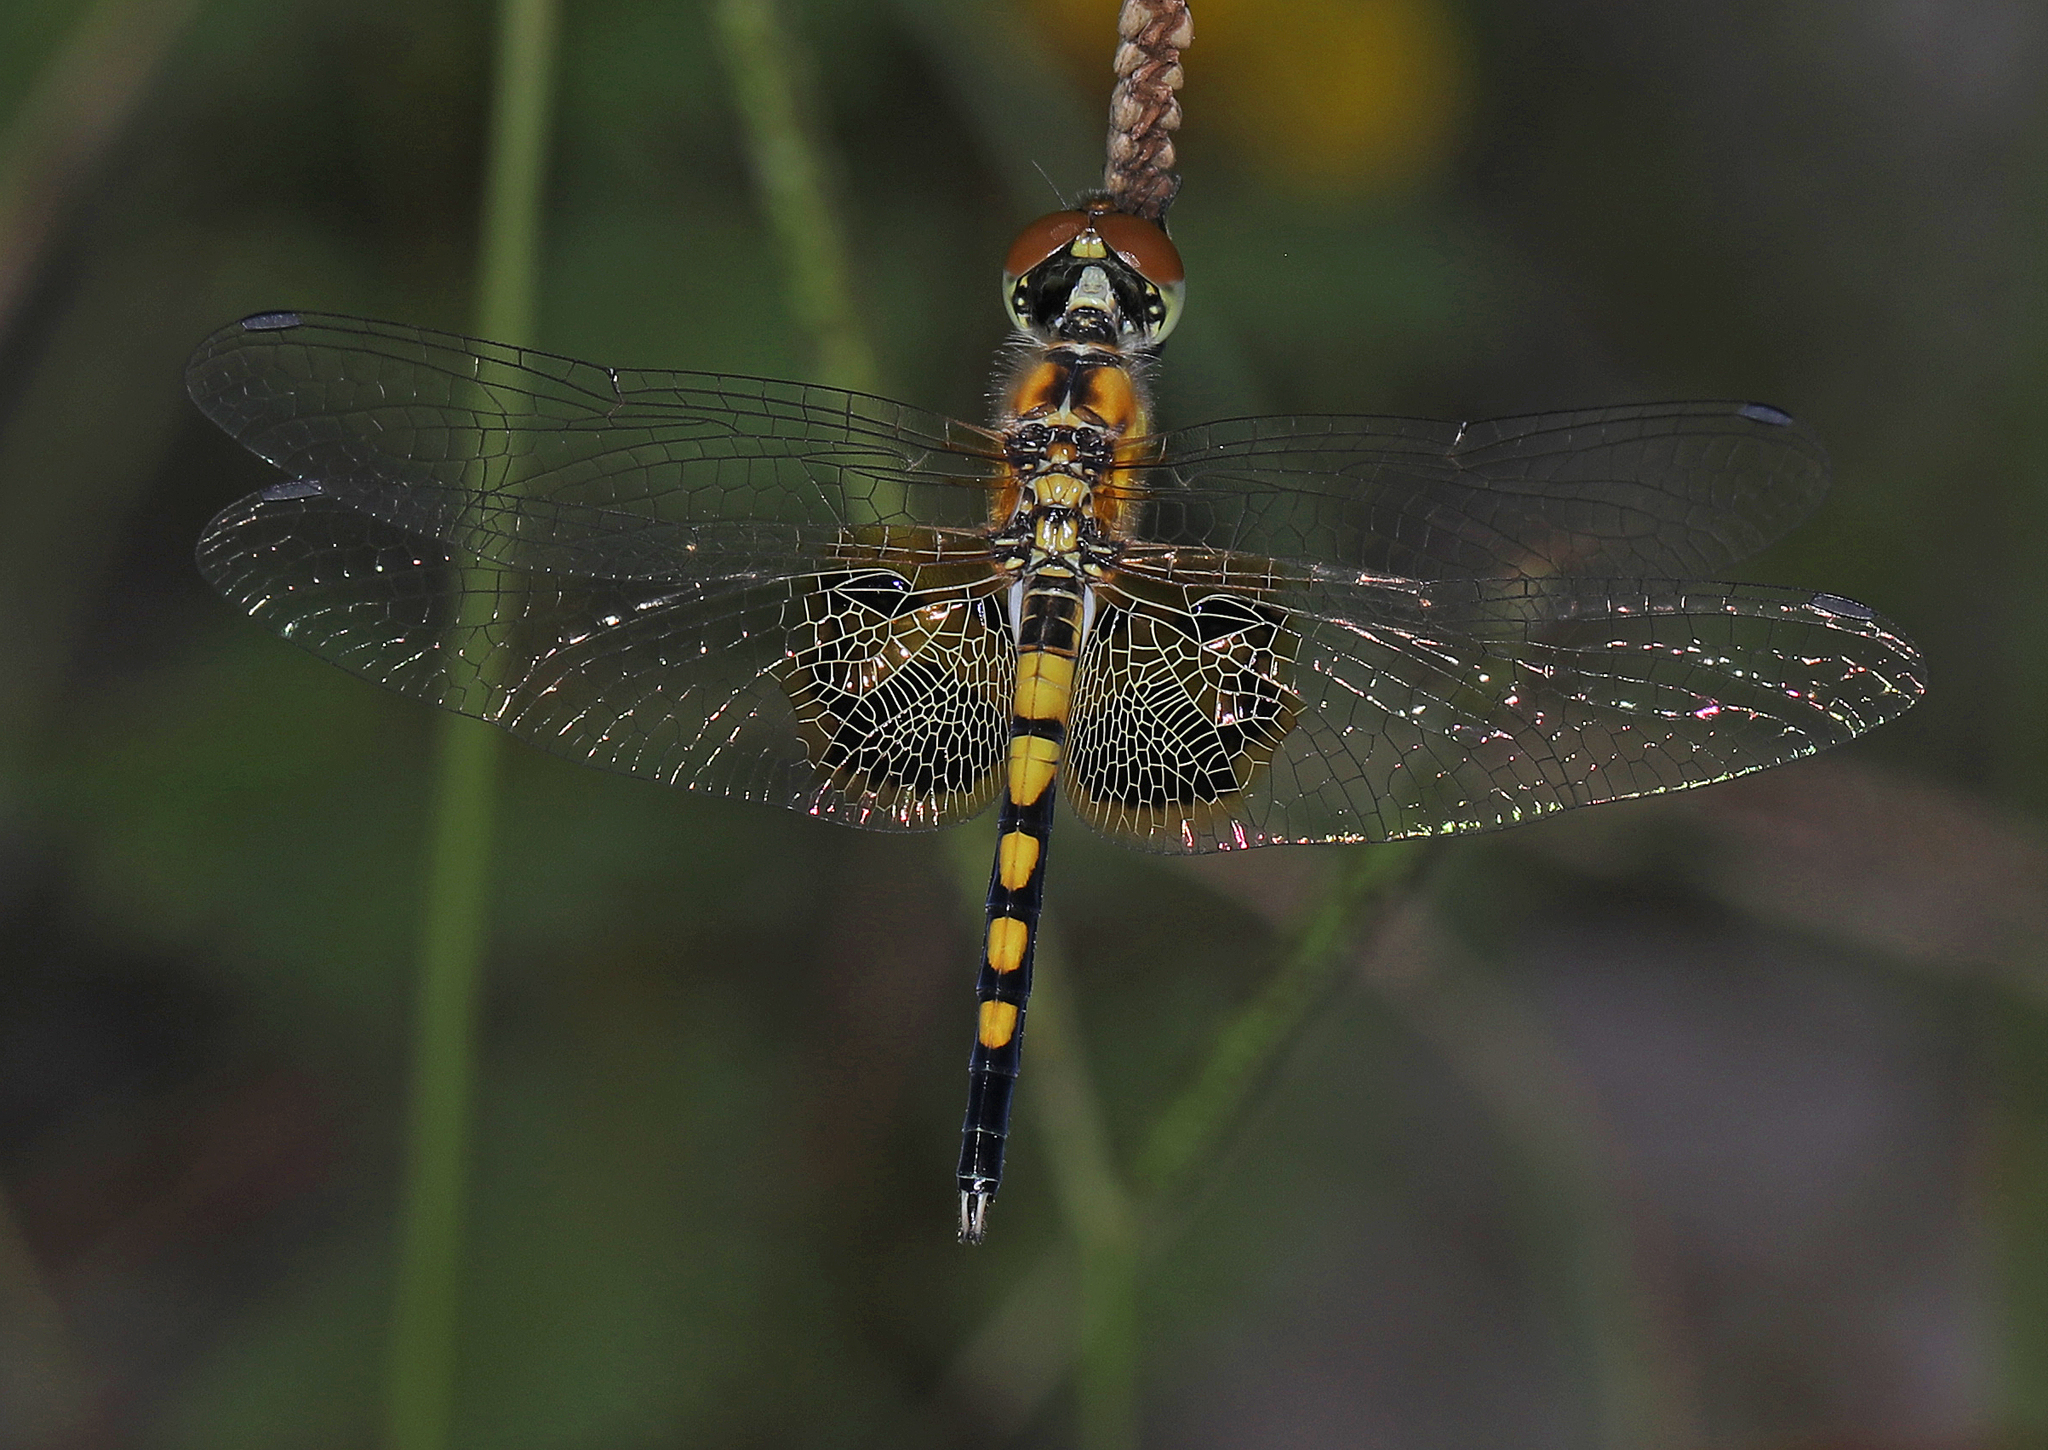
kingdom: Animalia
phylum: Arthropoda
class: Insecta
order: Odonata
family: Libellulidae
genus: Celithemis
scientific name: Celithemis amanda
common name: Amanda's pennant
